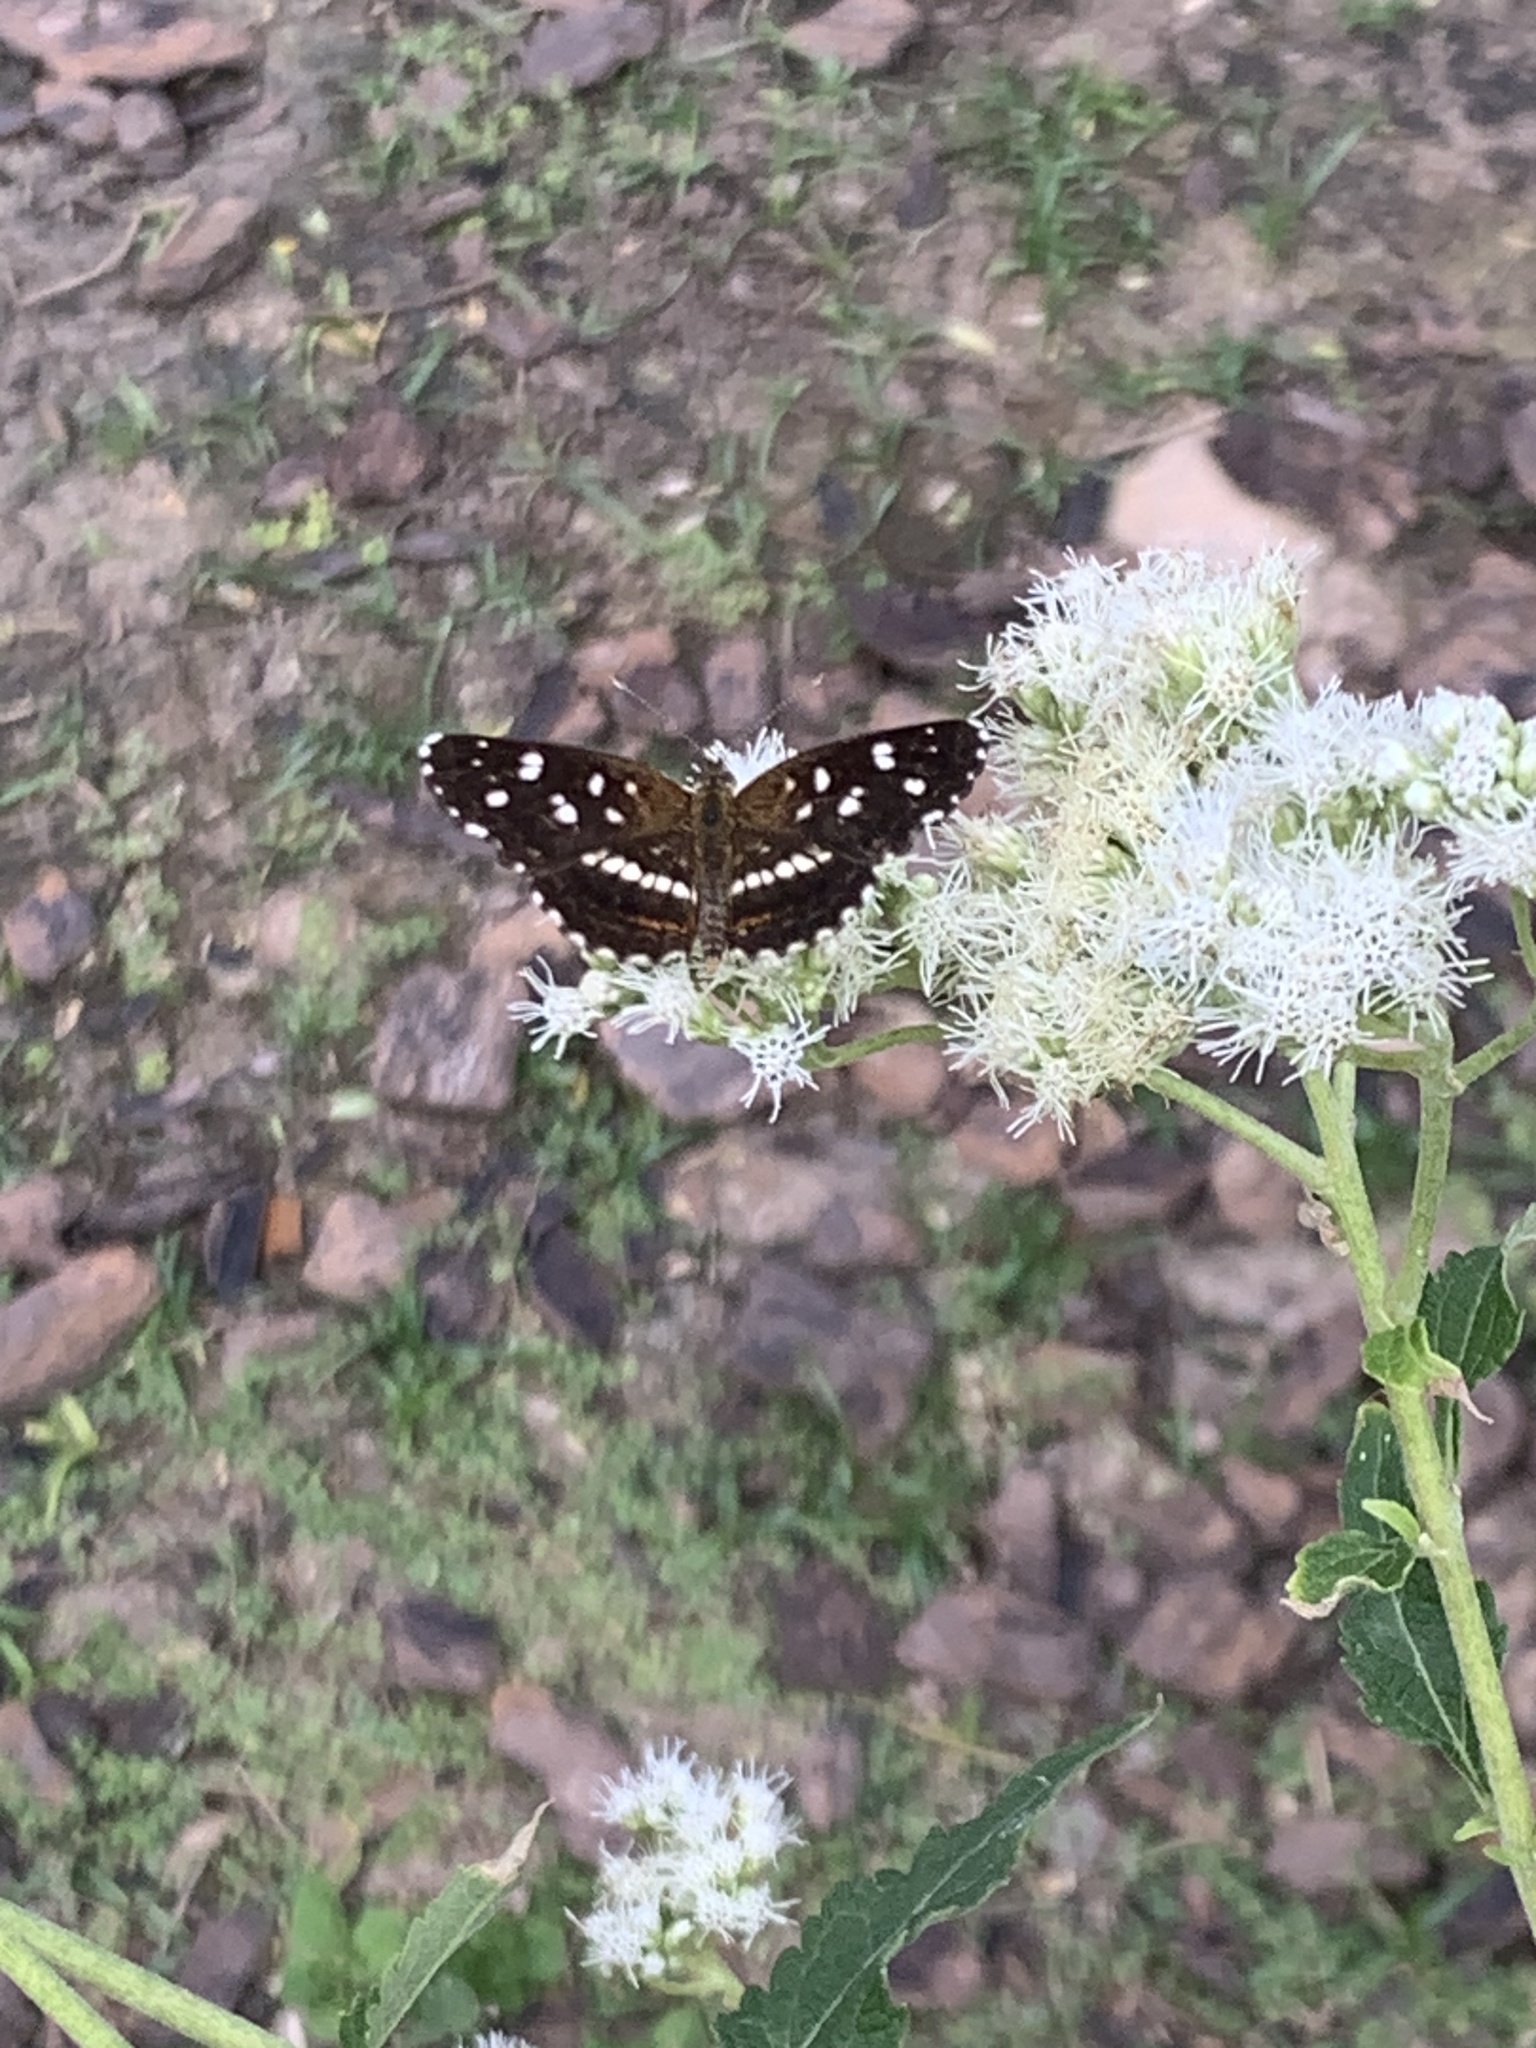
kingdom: Animalia
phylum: Arthropoda
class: Insecta
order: Lepidoptera
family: Nymphalidae
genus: Ortilia
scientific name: Ortilia ithra
